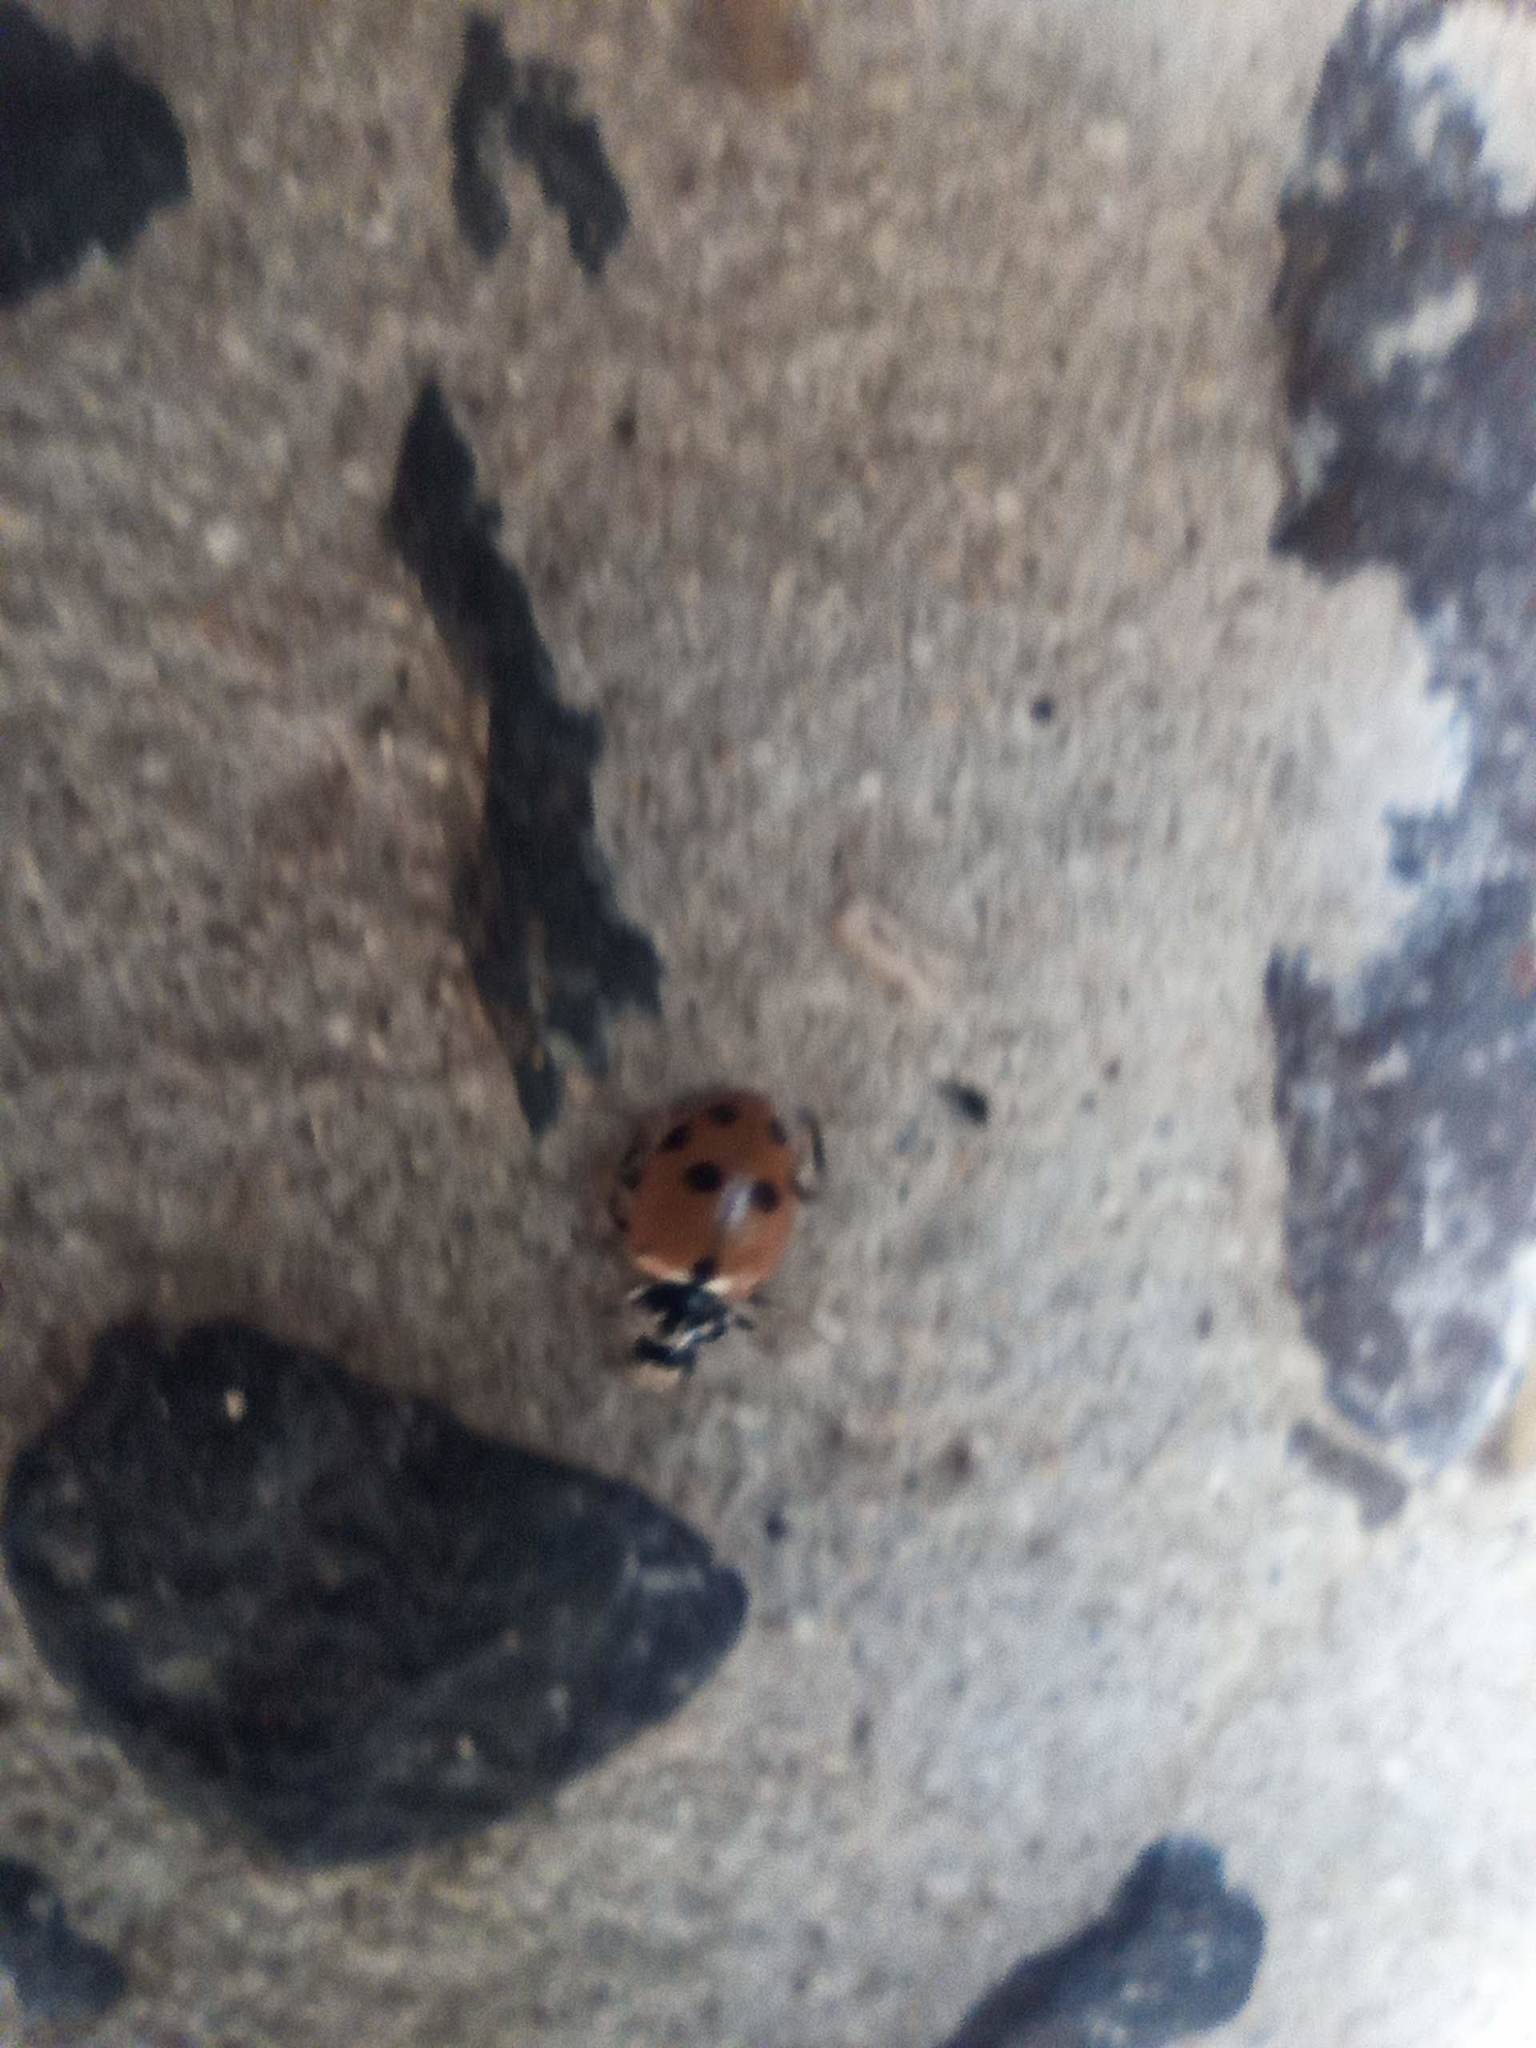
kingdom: Animalia
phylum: Arthropoda
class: Insecta
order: Coleoptera
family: Coccinellidae
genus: Hippodamia
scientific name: Hippodamia variegata
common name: Ladybird beetle
